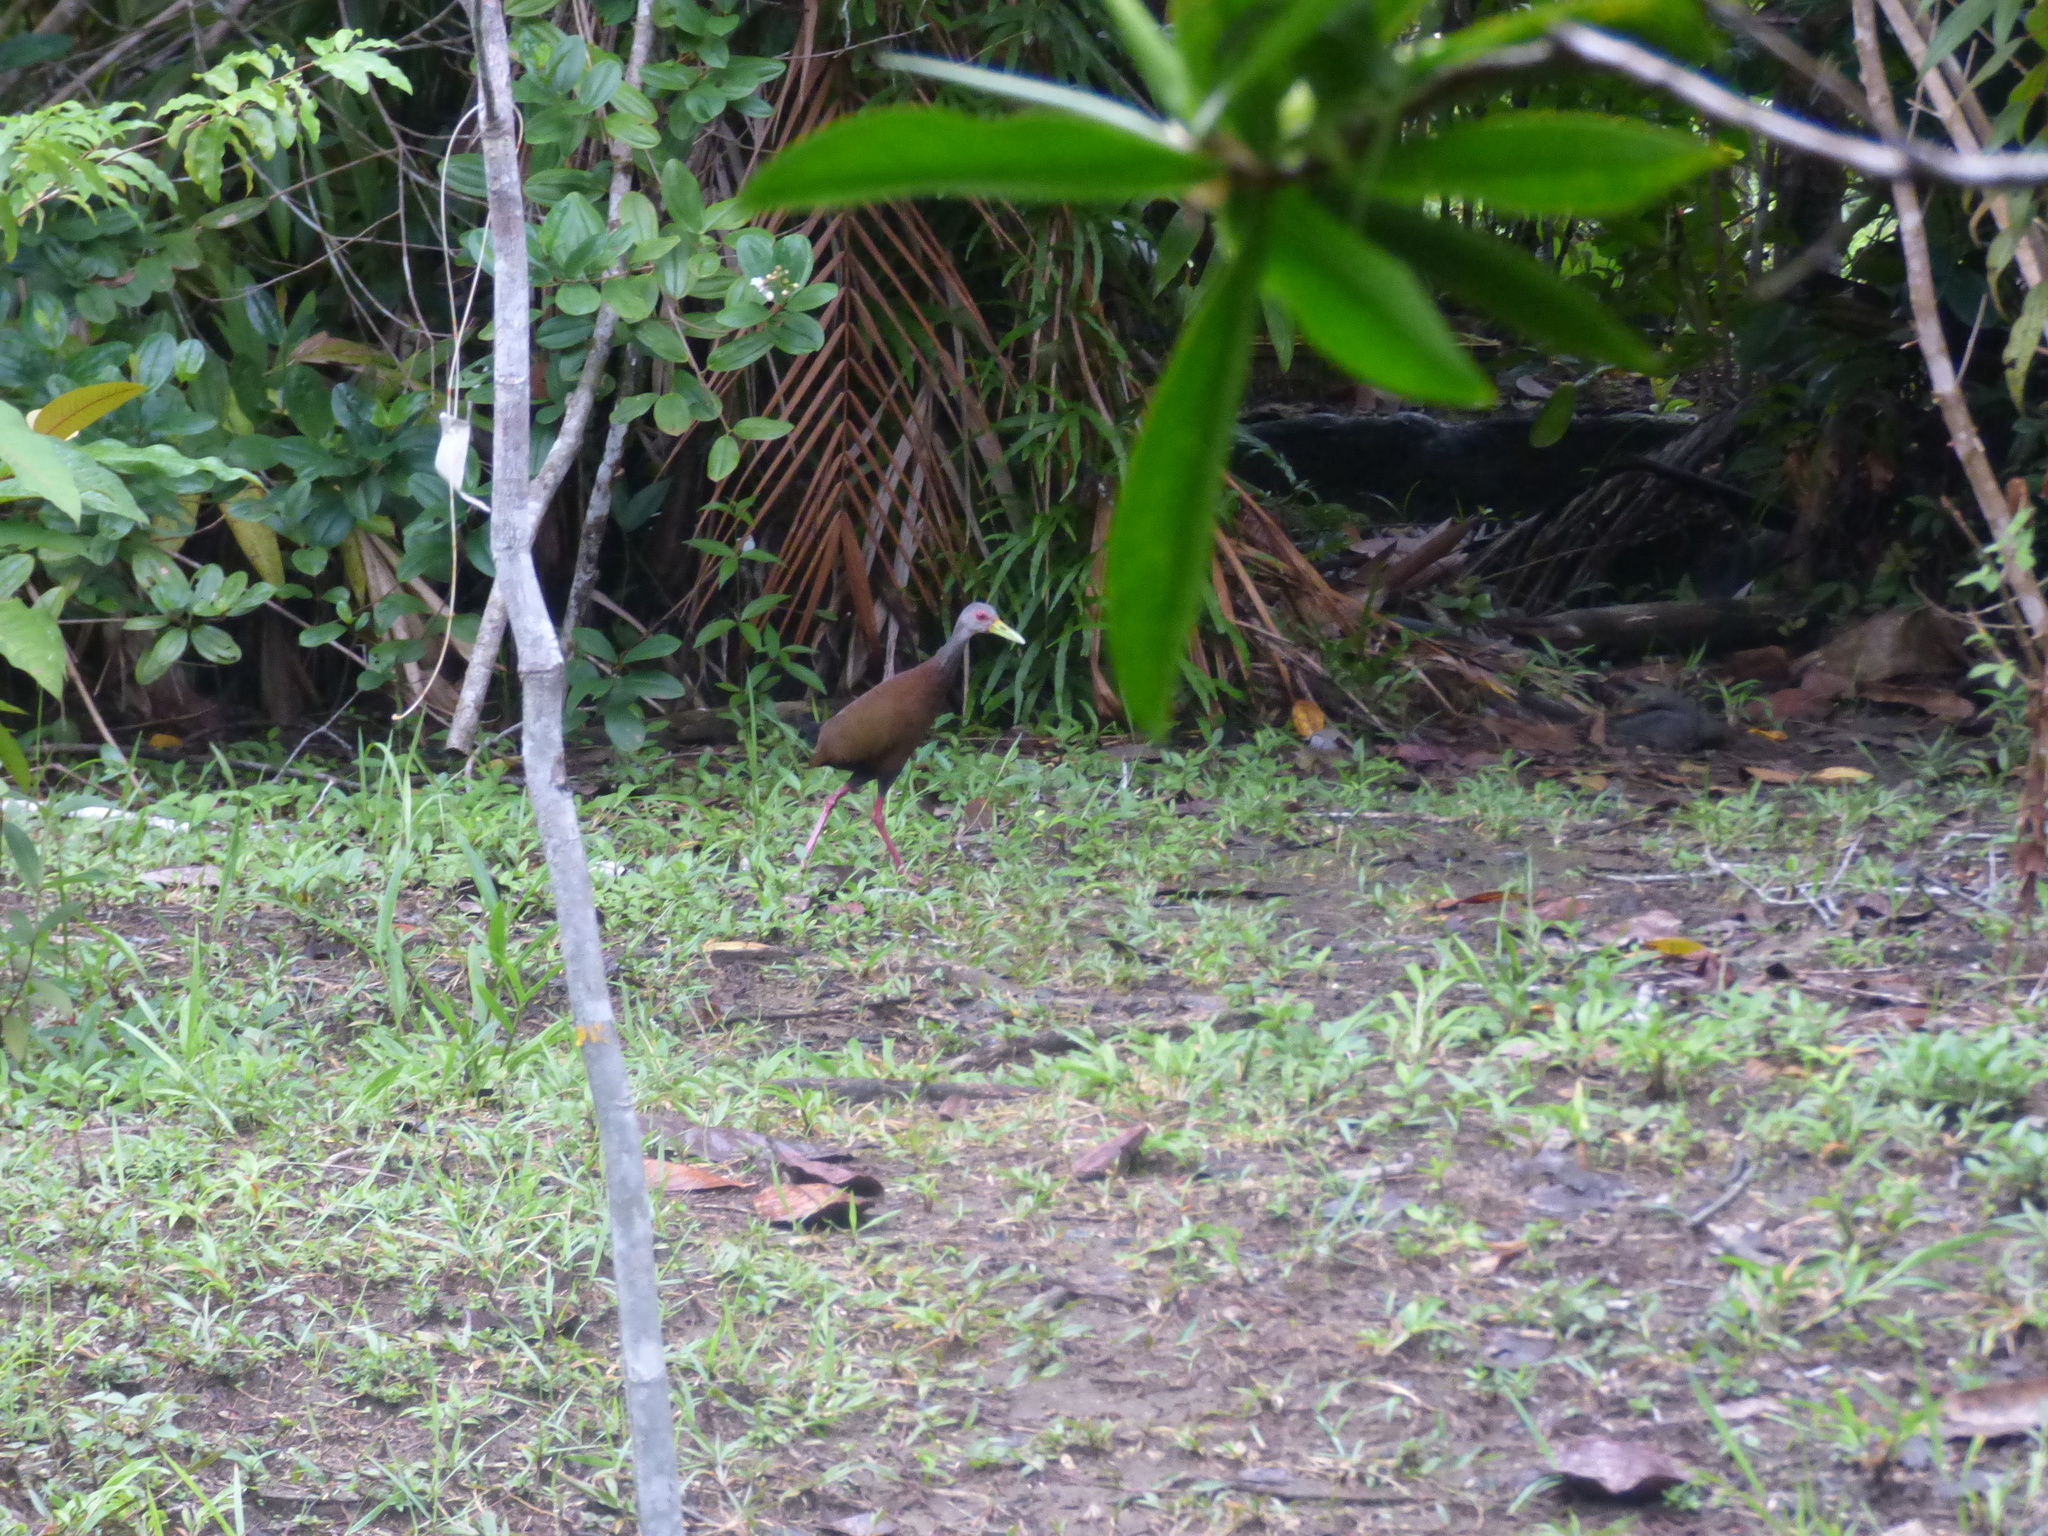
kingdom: Animalia
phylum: Chordata
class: Aves
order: Gruiformes
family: Rallidae
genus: Aramides
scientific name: Aramides wolfi
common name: Brown wood rail
